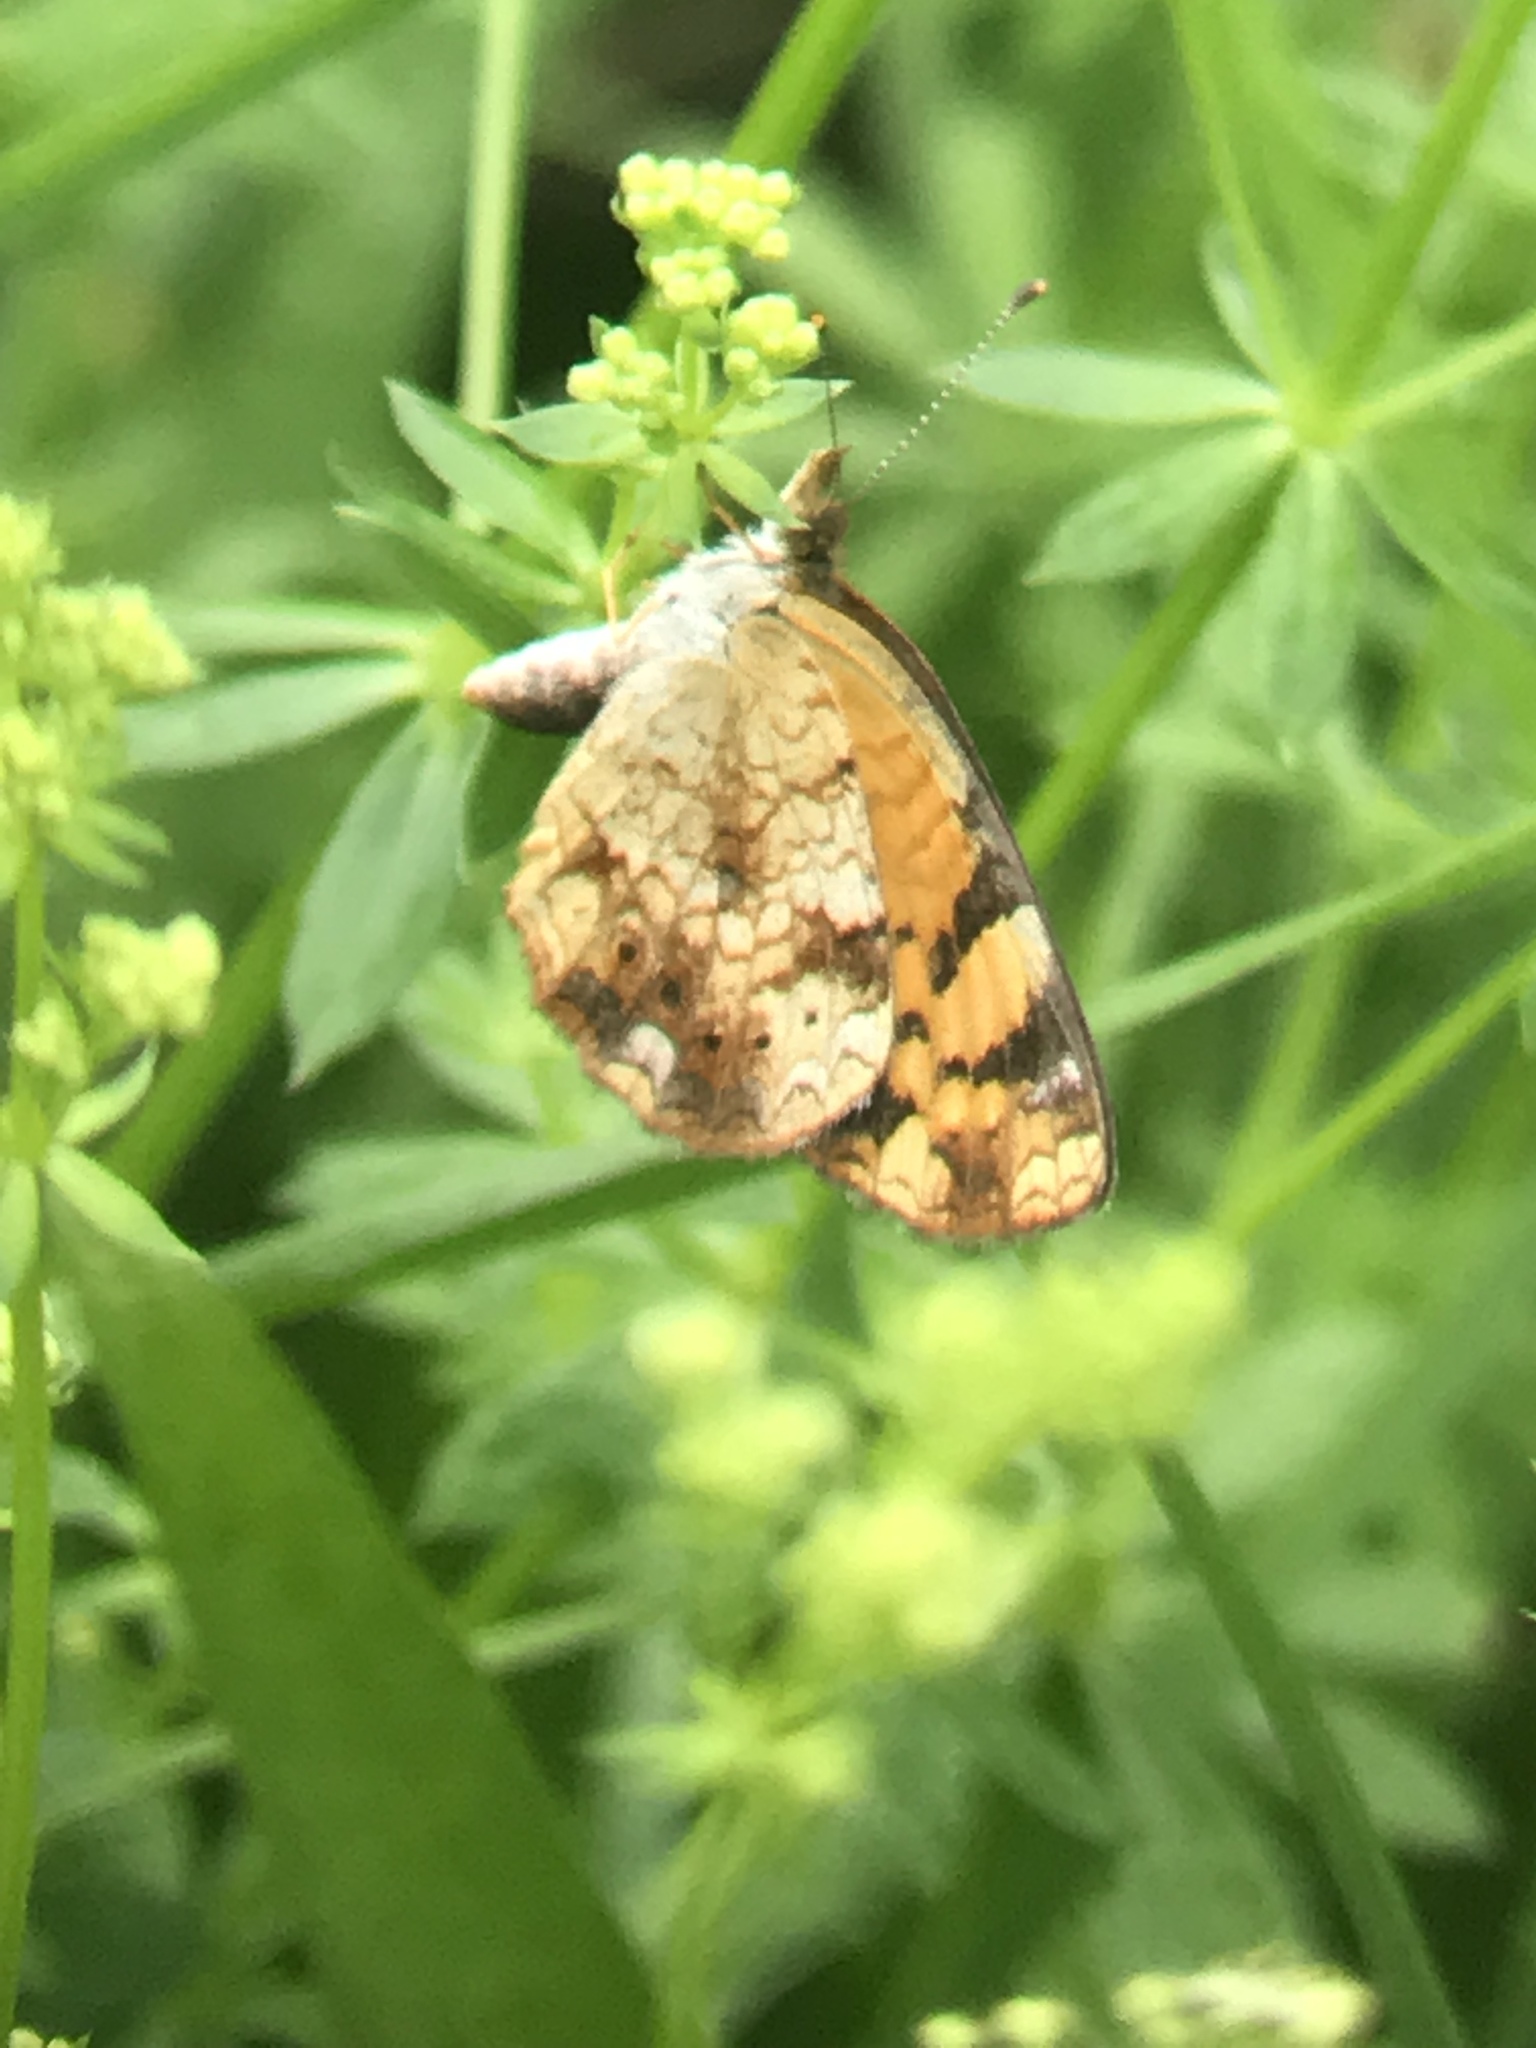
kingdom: Animalia
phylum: Arthropoda
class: Insecta
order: Lepidoptera
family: Nymphalidae
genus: Phyciodes
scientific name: Phyciodes tharos
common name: Pearl crescent
